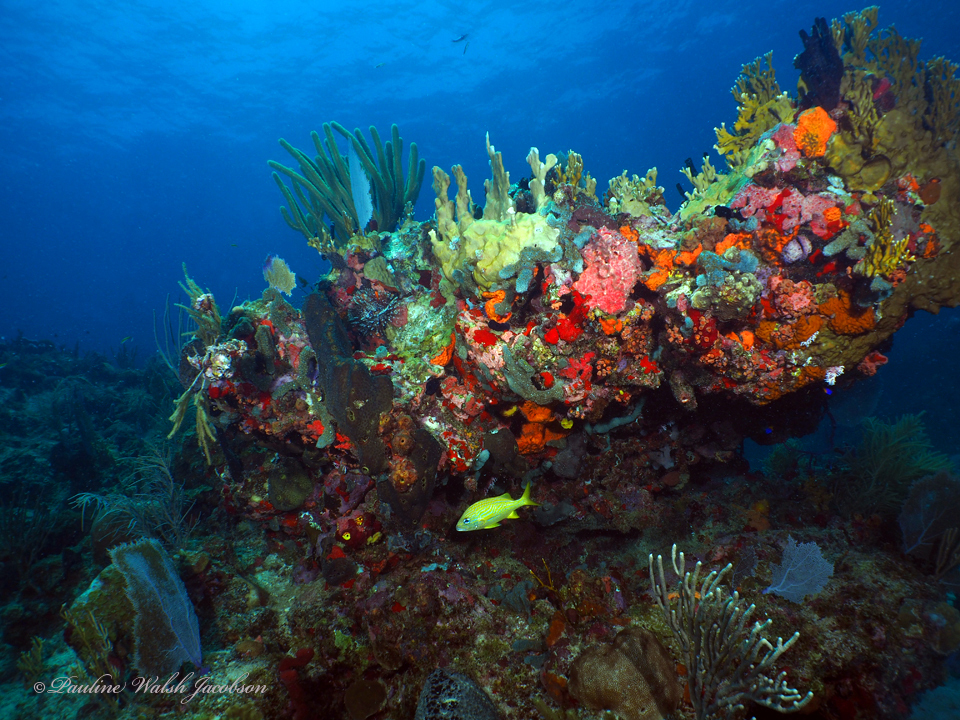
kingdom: Animalia
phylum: Chordata
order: Perciformes
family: Haemulidae
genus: Haemulon
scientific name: Haemulon flavolineatum
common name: French grunt
